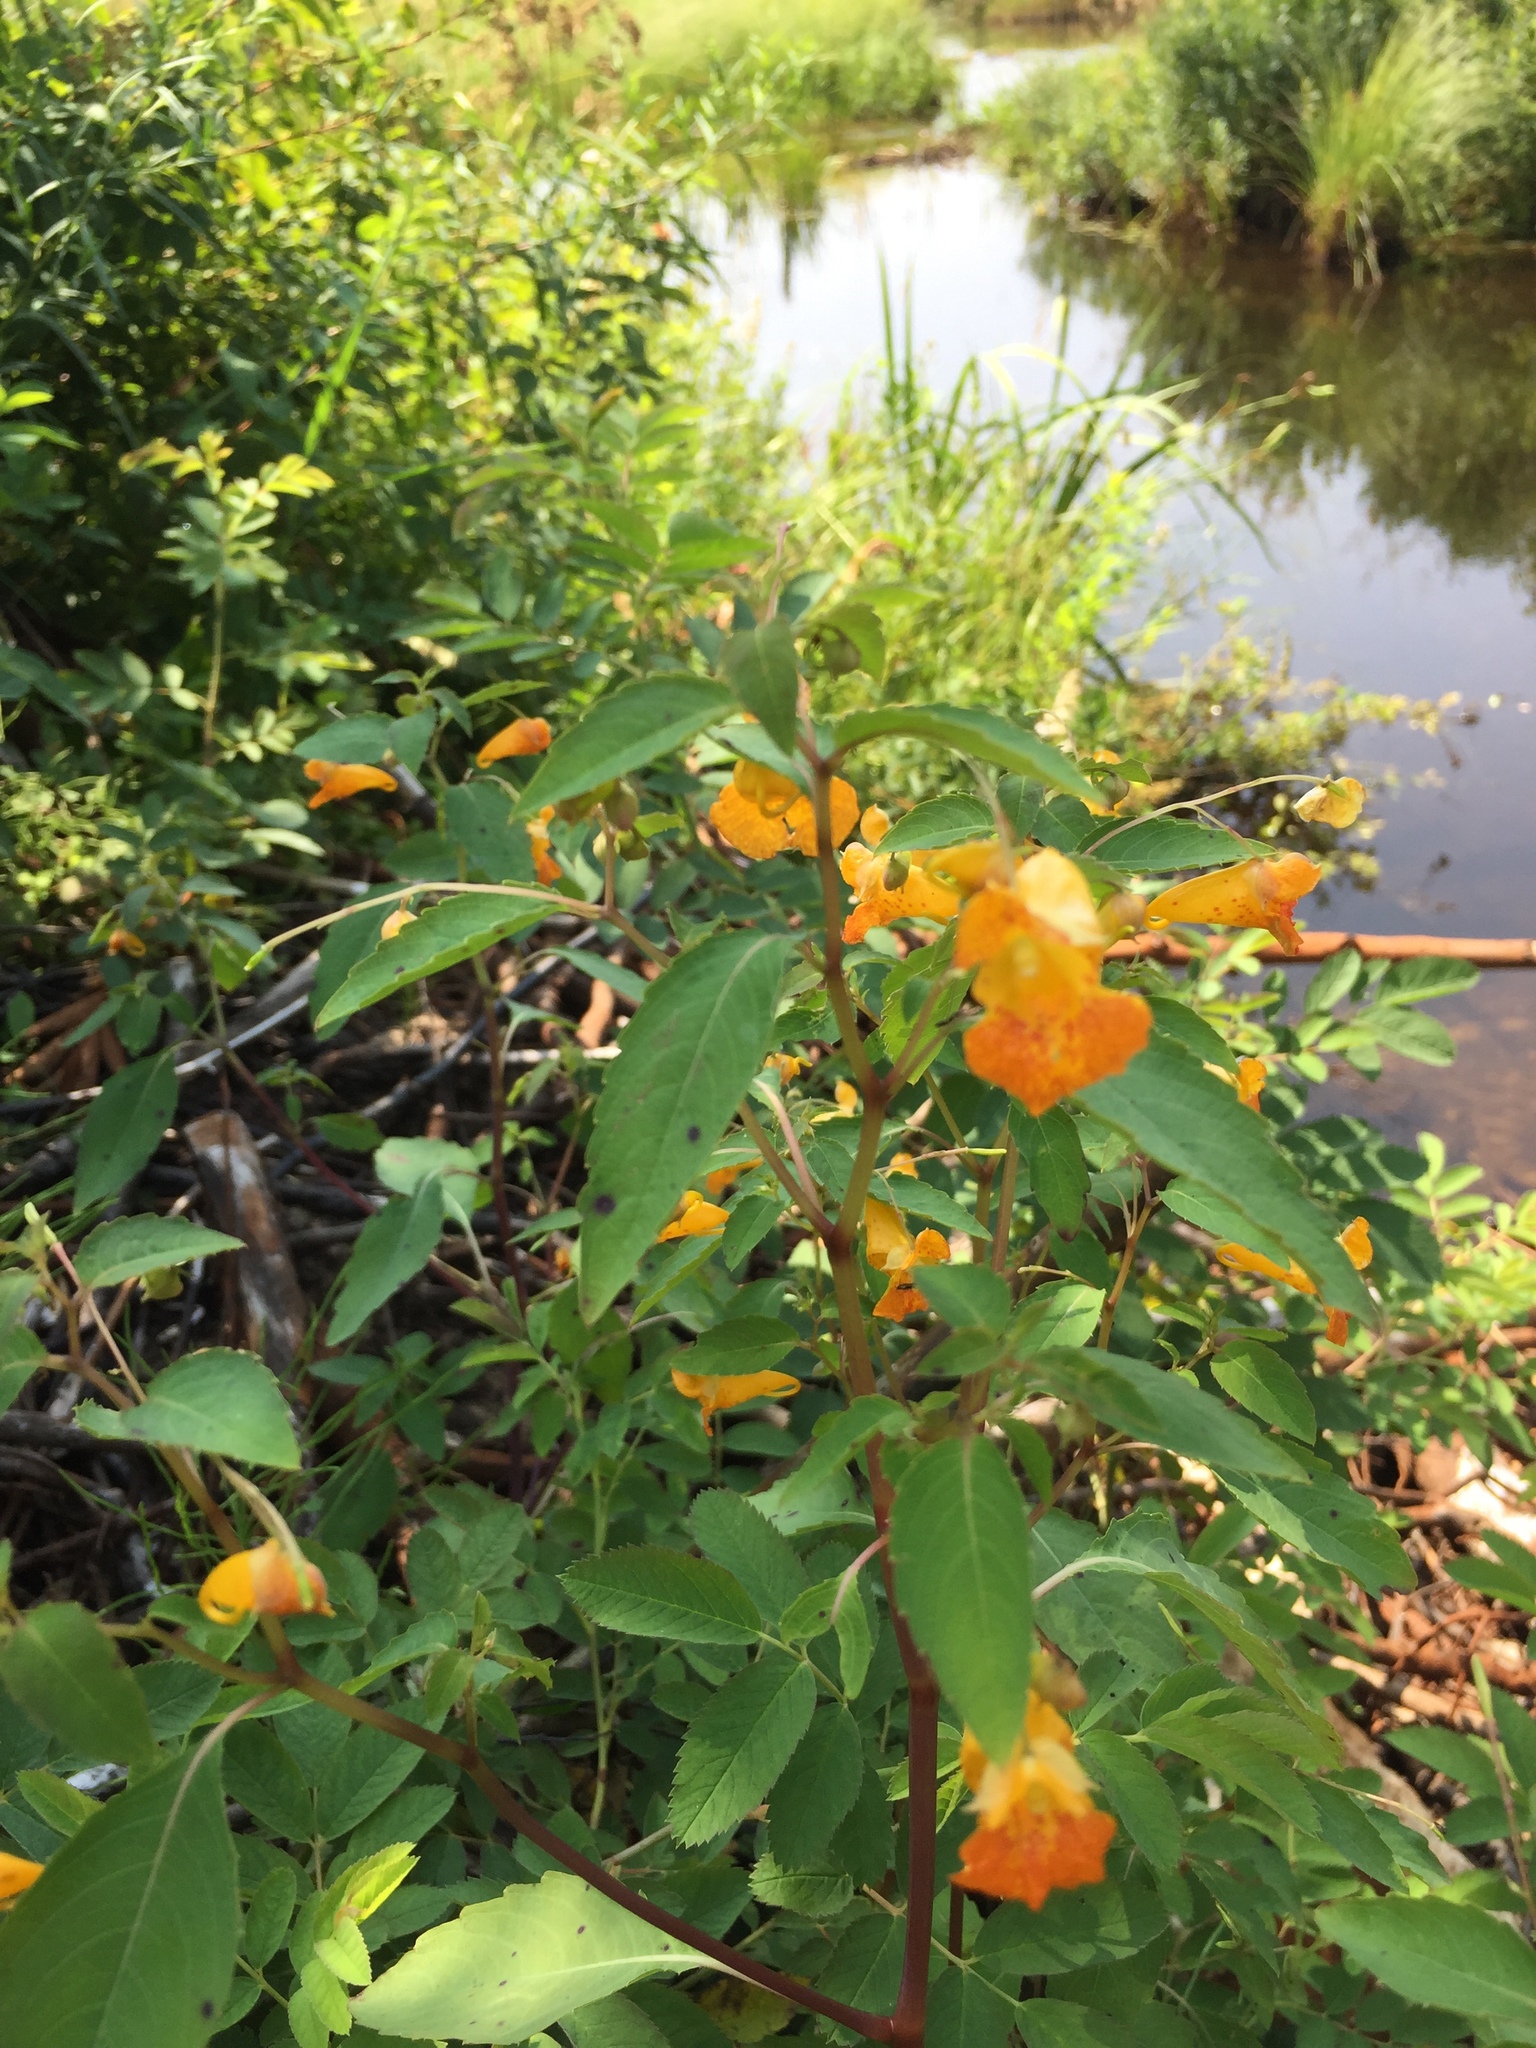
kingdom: Plantae
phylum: Tracheophyta
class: Magnoliopsida
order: Ericales
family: Balsaminaceae
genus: Impatiens
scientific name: Impatiens capensis
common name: Orange balsam
